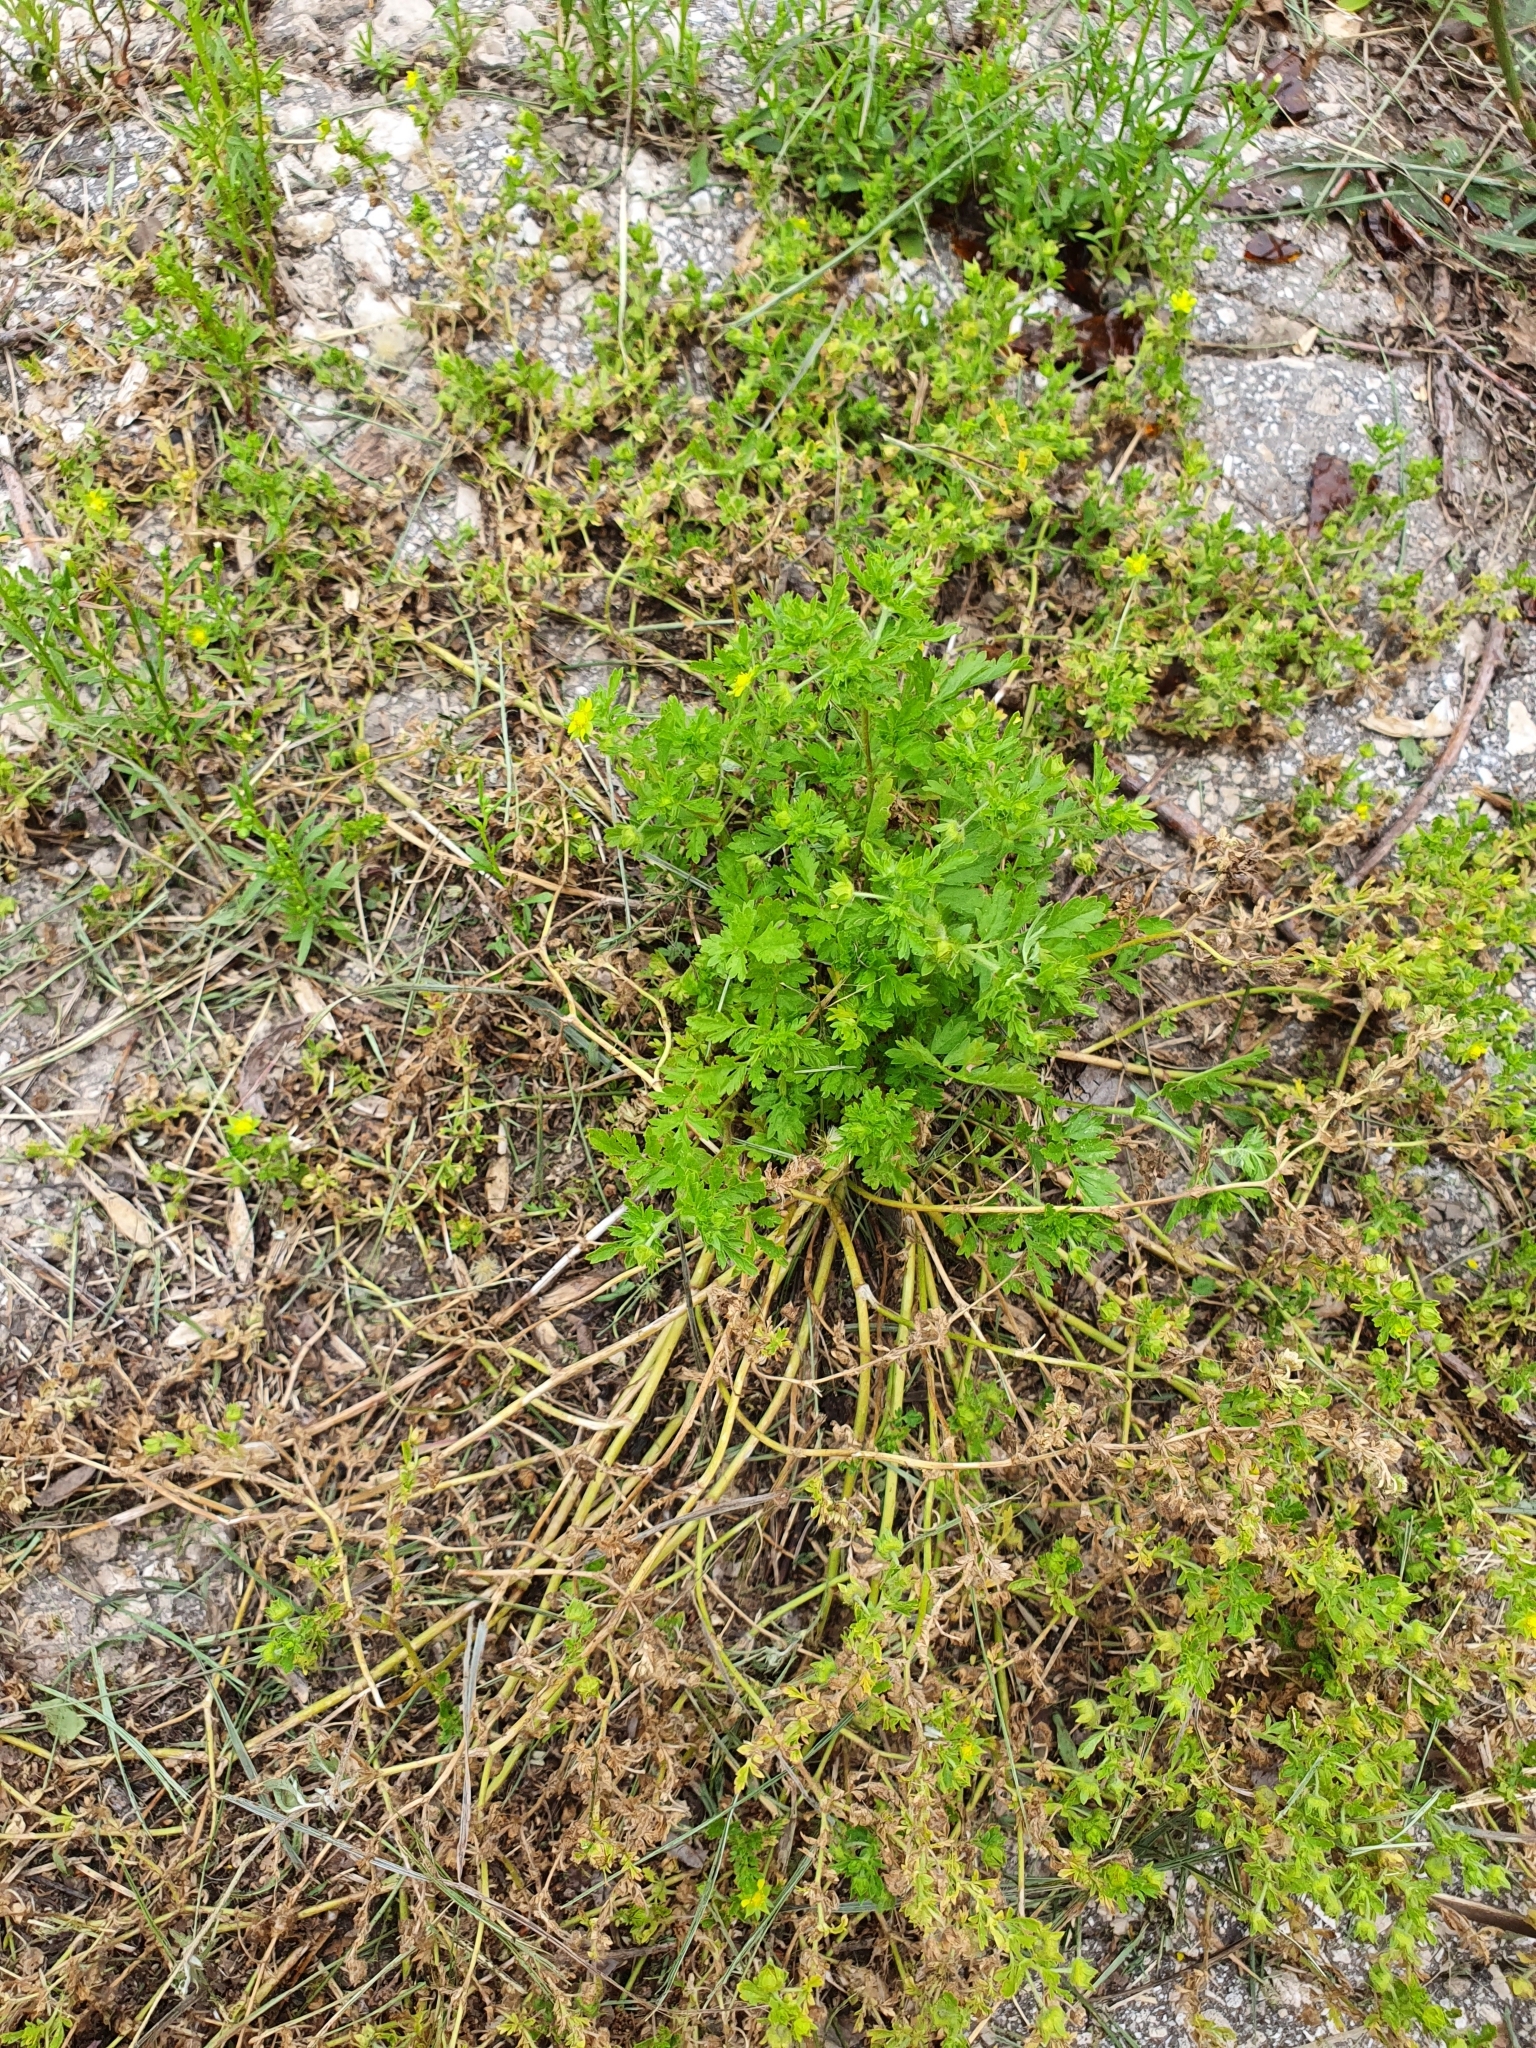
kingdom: Plantae
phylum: Tracheophyta
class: Magnoliopsida
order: Rosales
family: Rosaceae
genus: Potentilla
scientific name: Potentilla supina
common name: Prostrate cinquefoil
